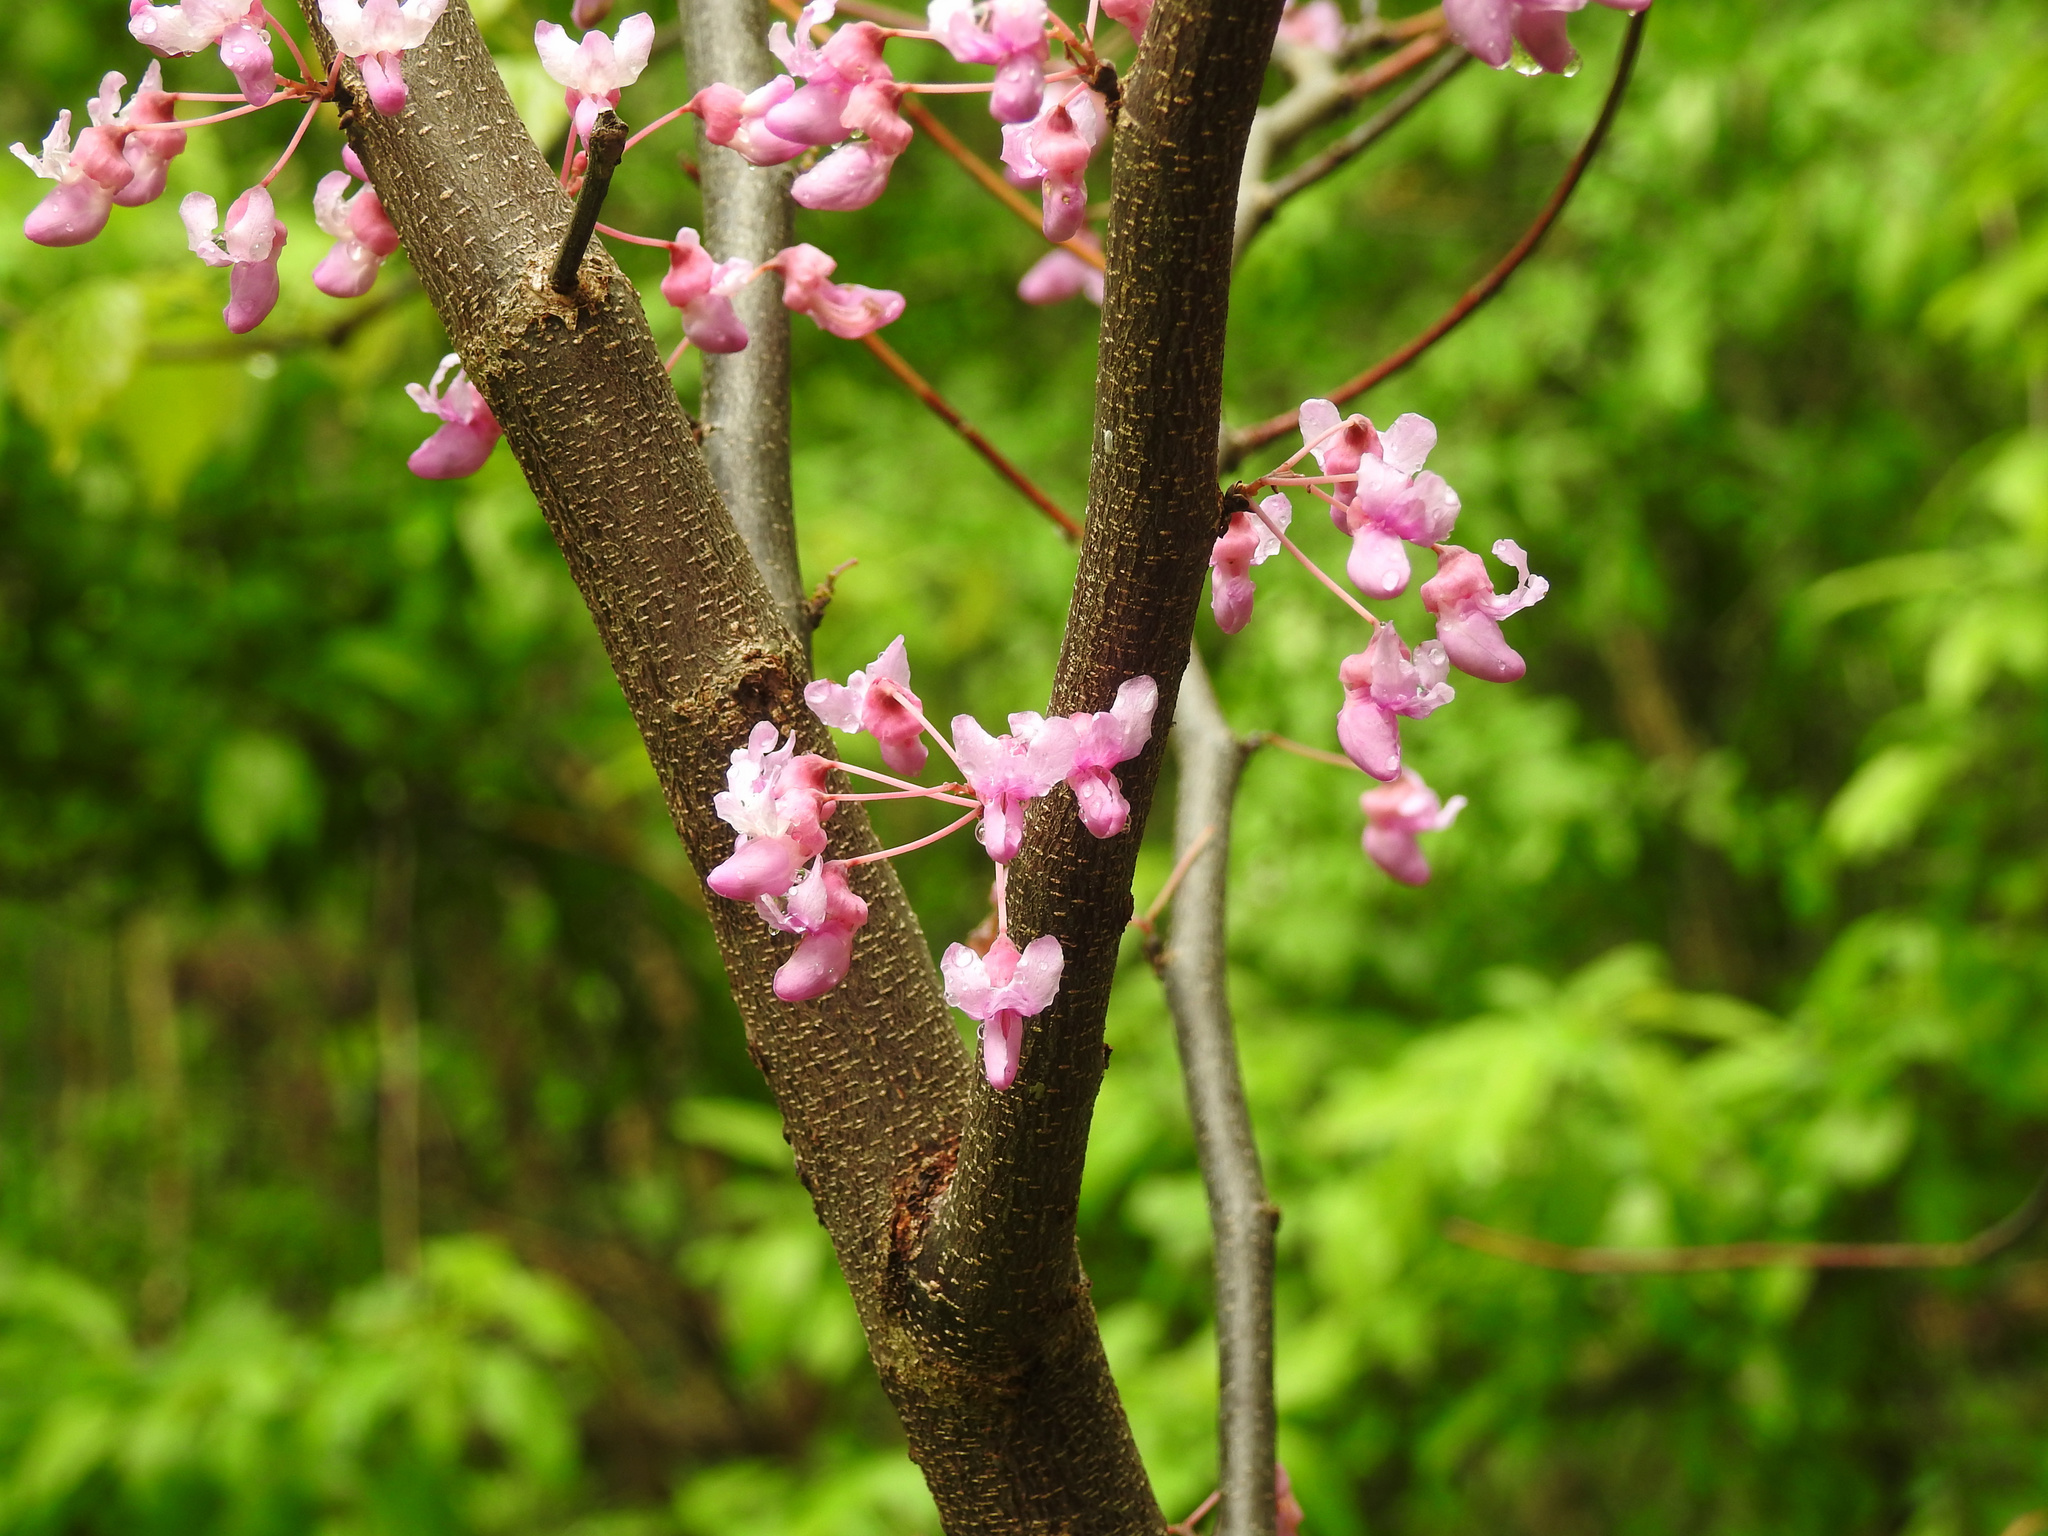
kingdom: Plantae
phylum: Tracheophyta
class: Magnoliopsida
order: Fabales
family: Fabaceae
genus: Cercis
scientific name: Cercis canadensis
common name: Eastern redbud
